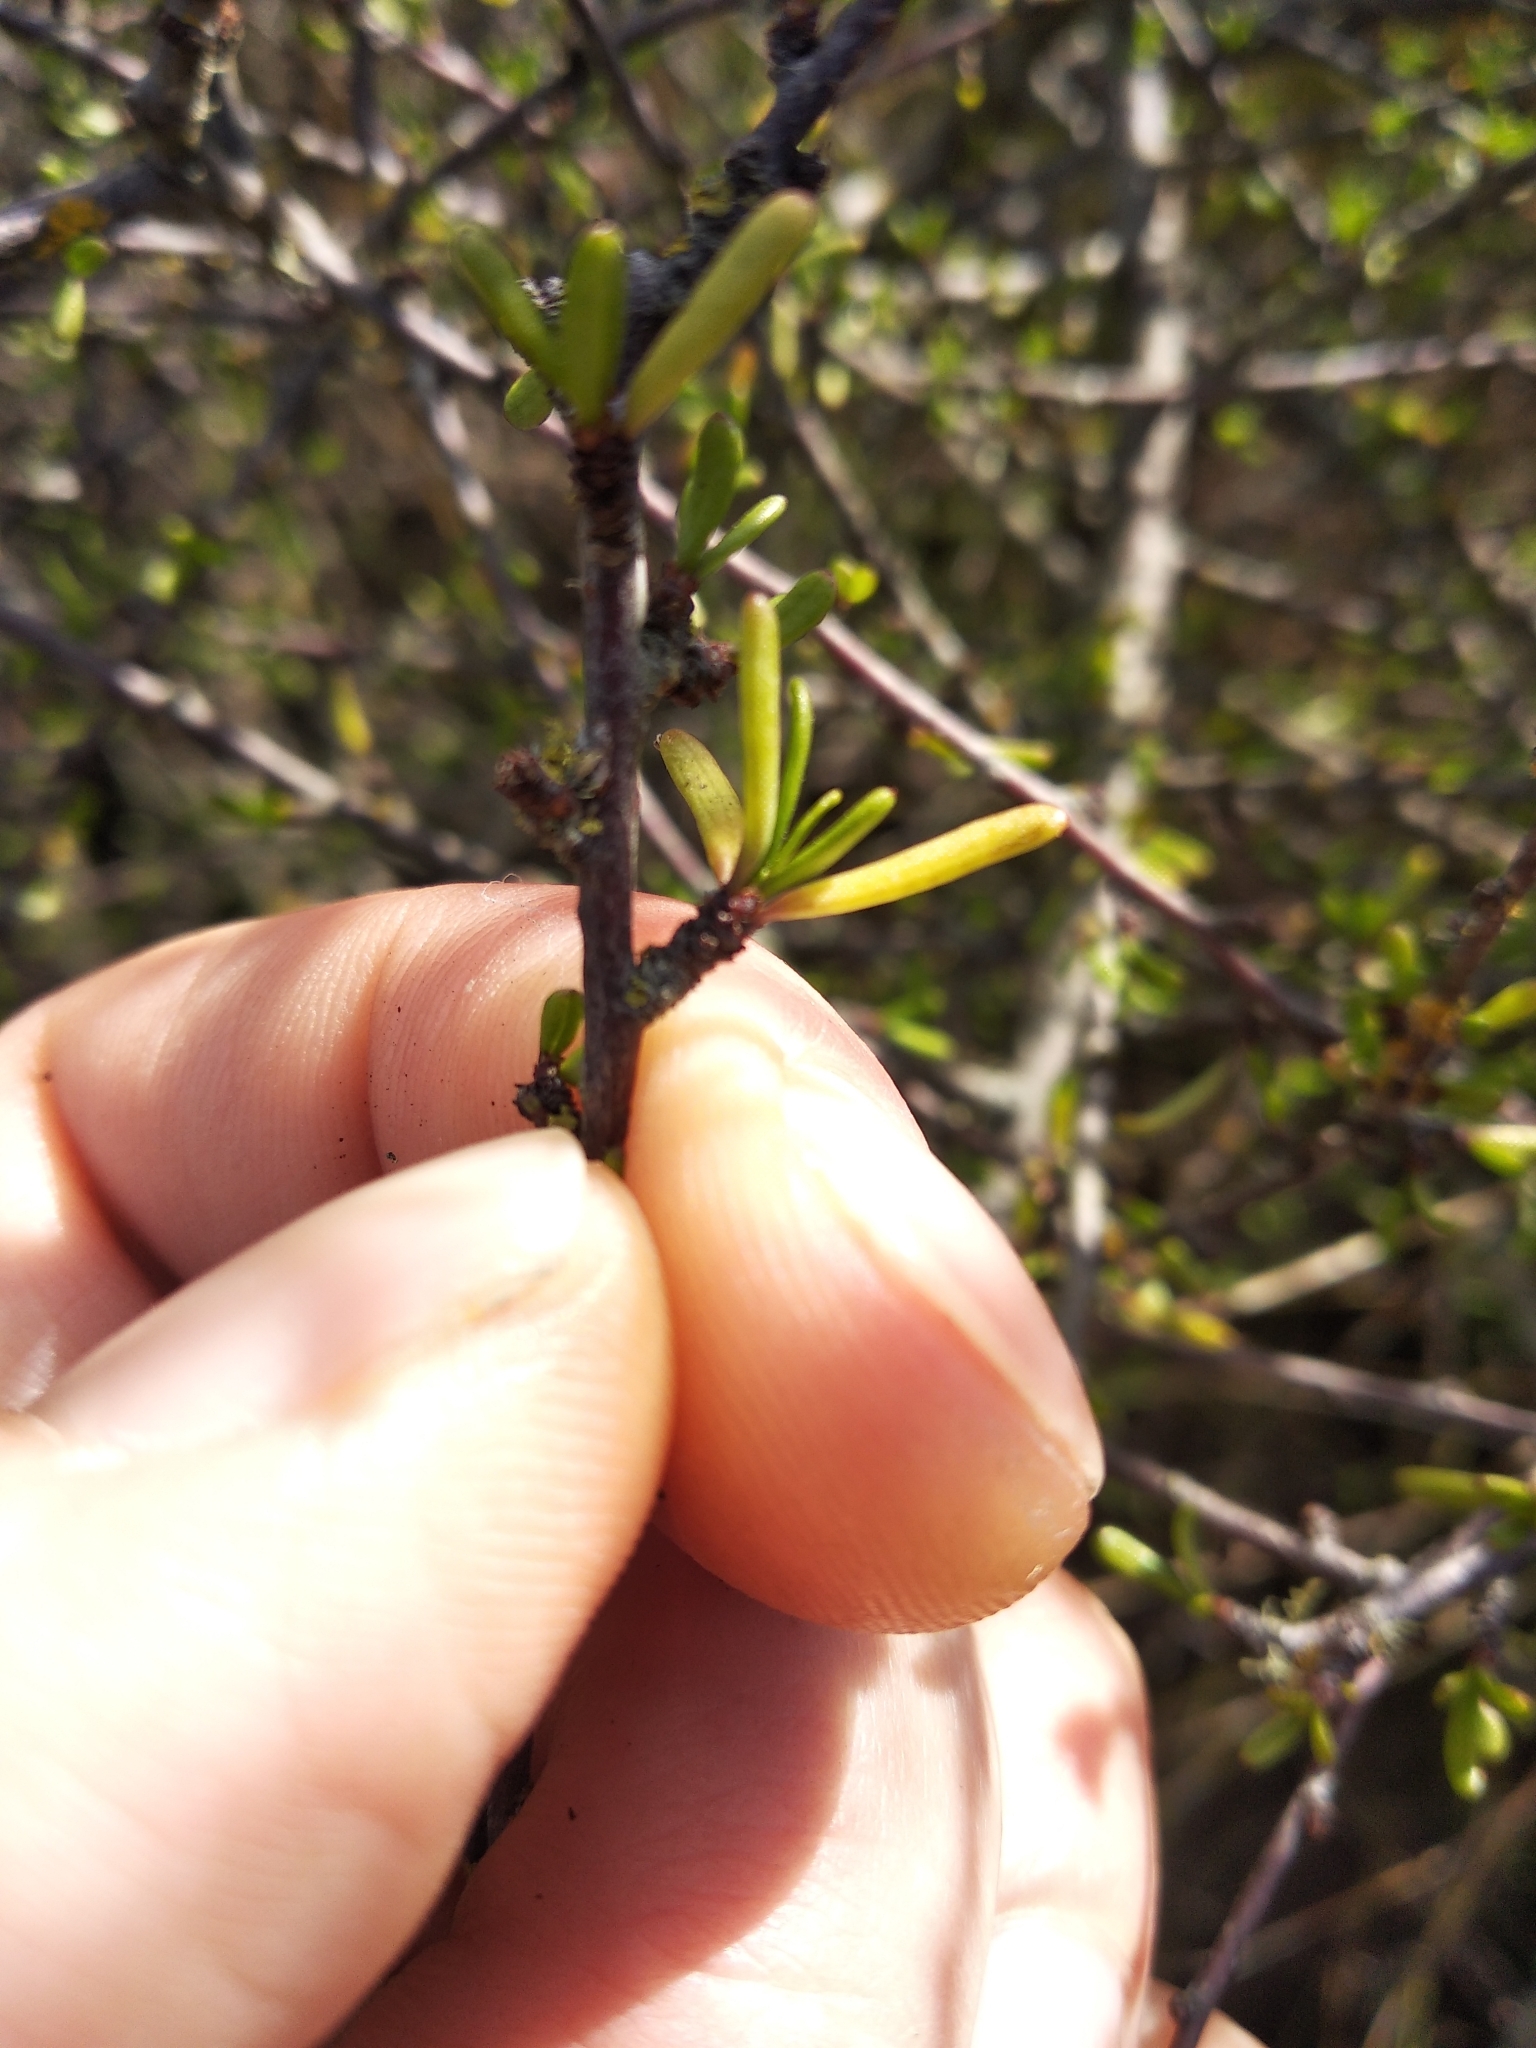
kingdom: Plantae
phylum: Tracheophyta
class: Magnoliopsida
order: Malvales
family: Malvaceae
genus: Plagianthus
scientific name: Plagianthus divaricatus
